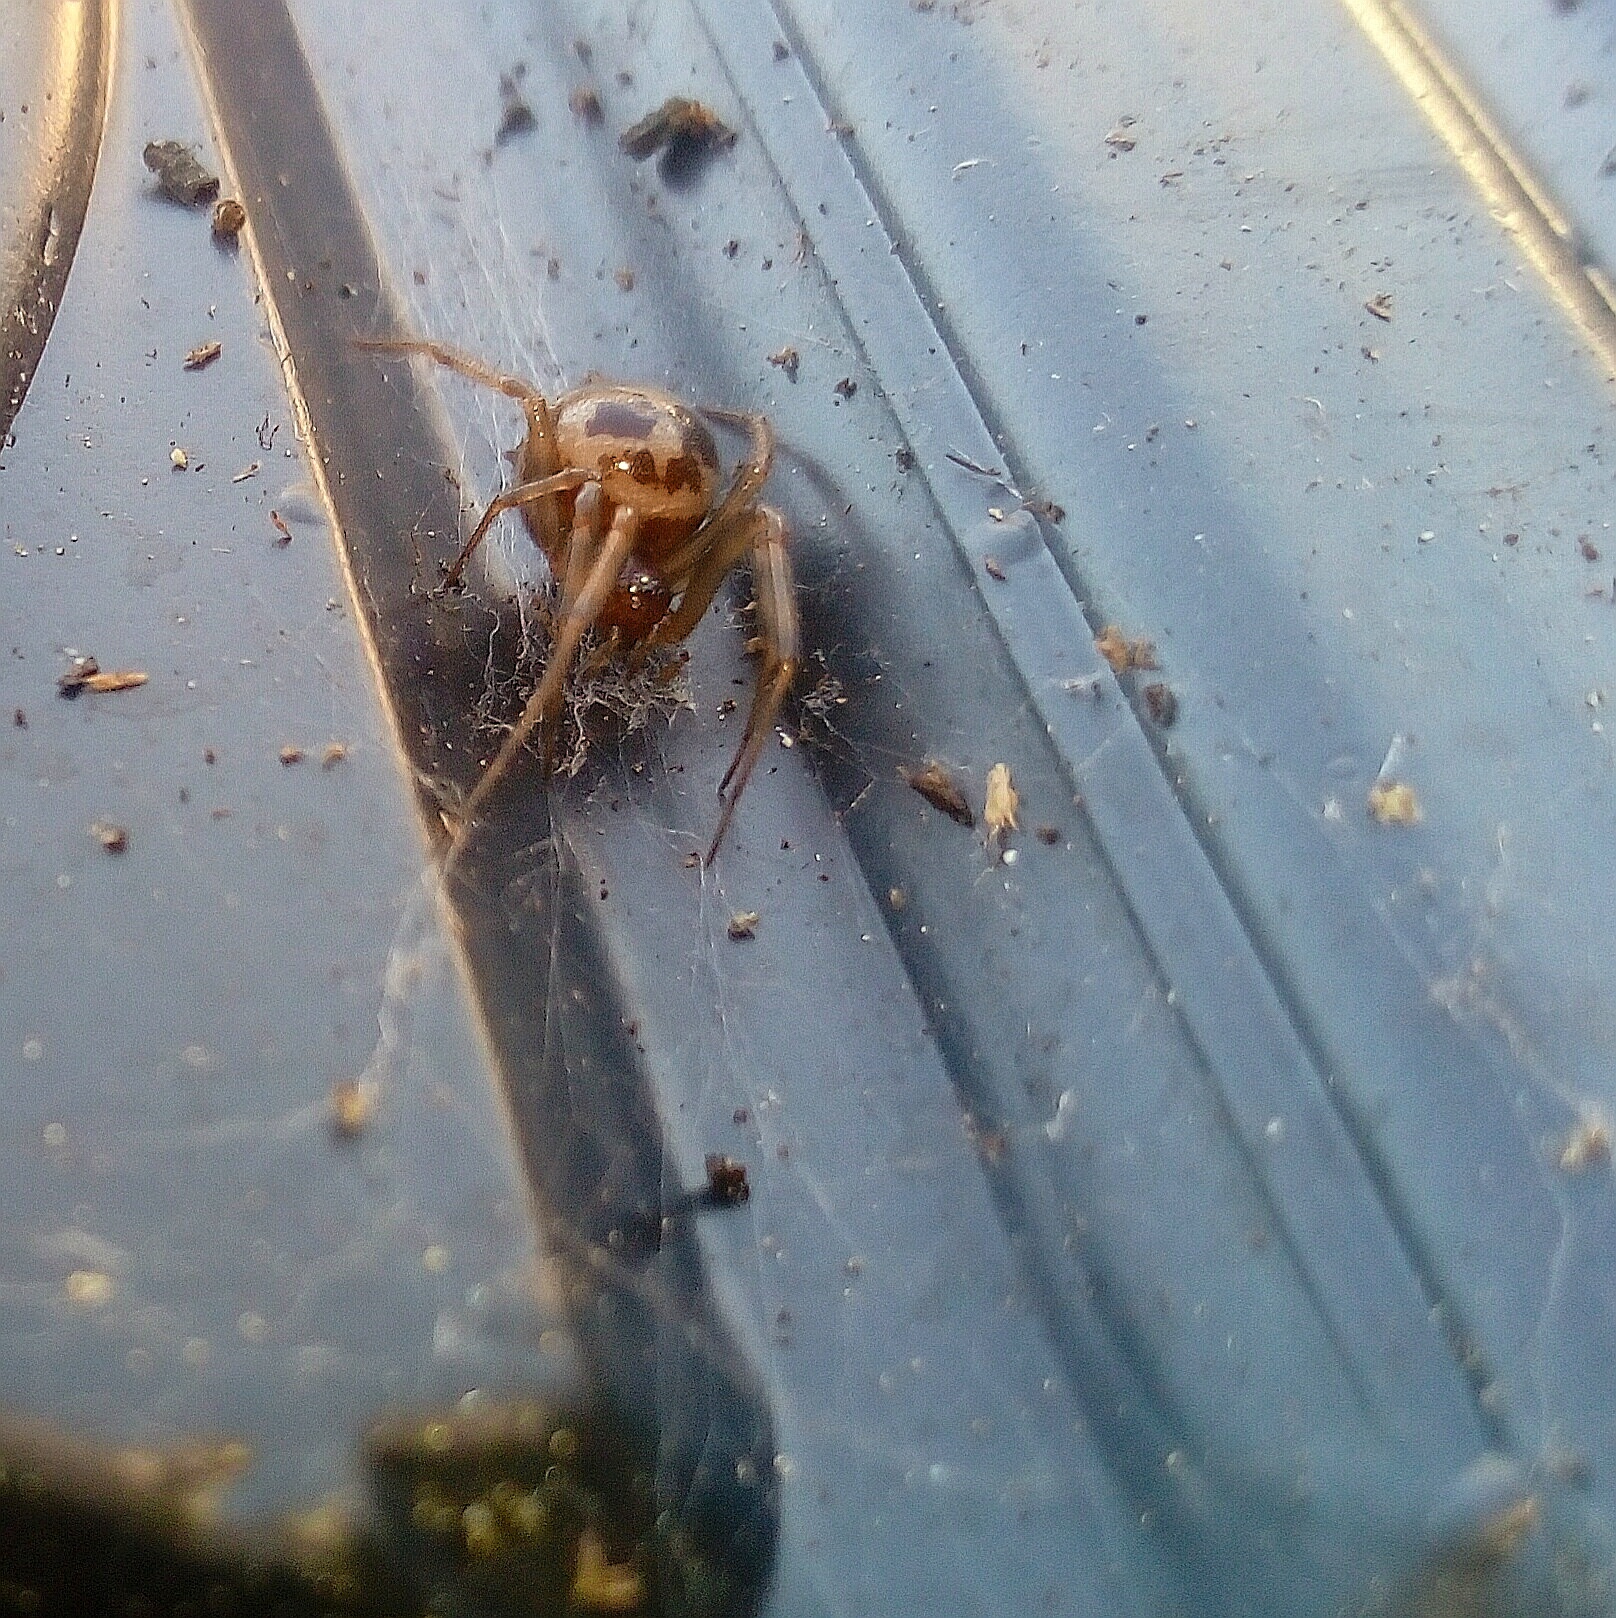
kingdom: Animalia
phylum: Arthropoda
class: Arachnida
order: Araneae
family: Theridiidae
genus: Steatoda
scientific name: Steatoda triangulosa
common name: Triangulate bud spider
